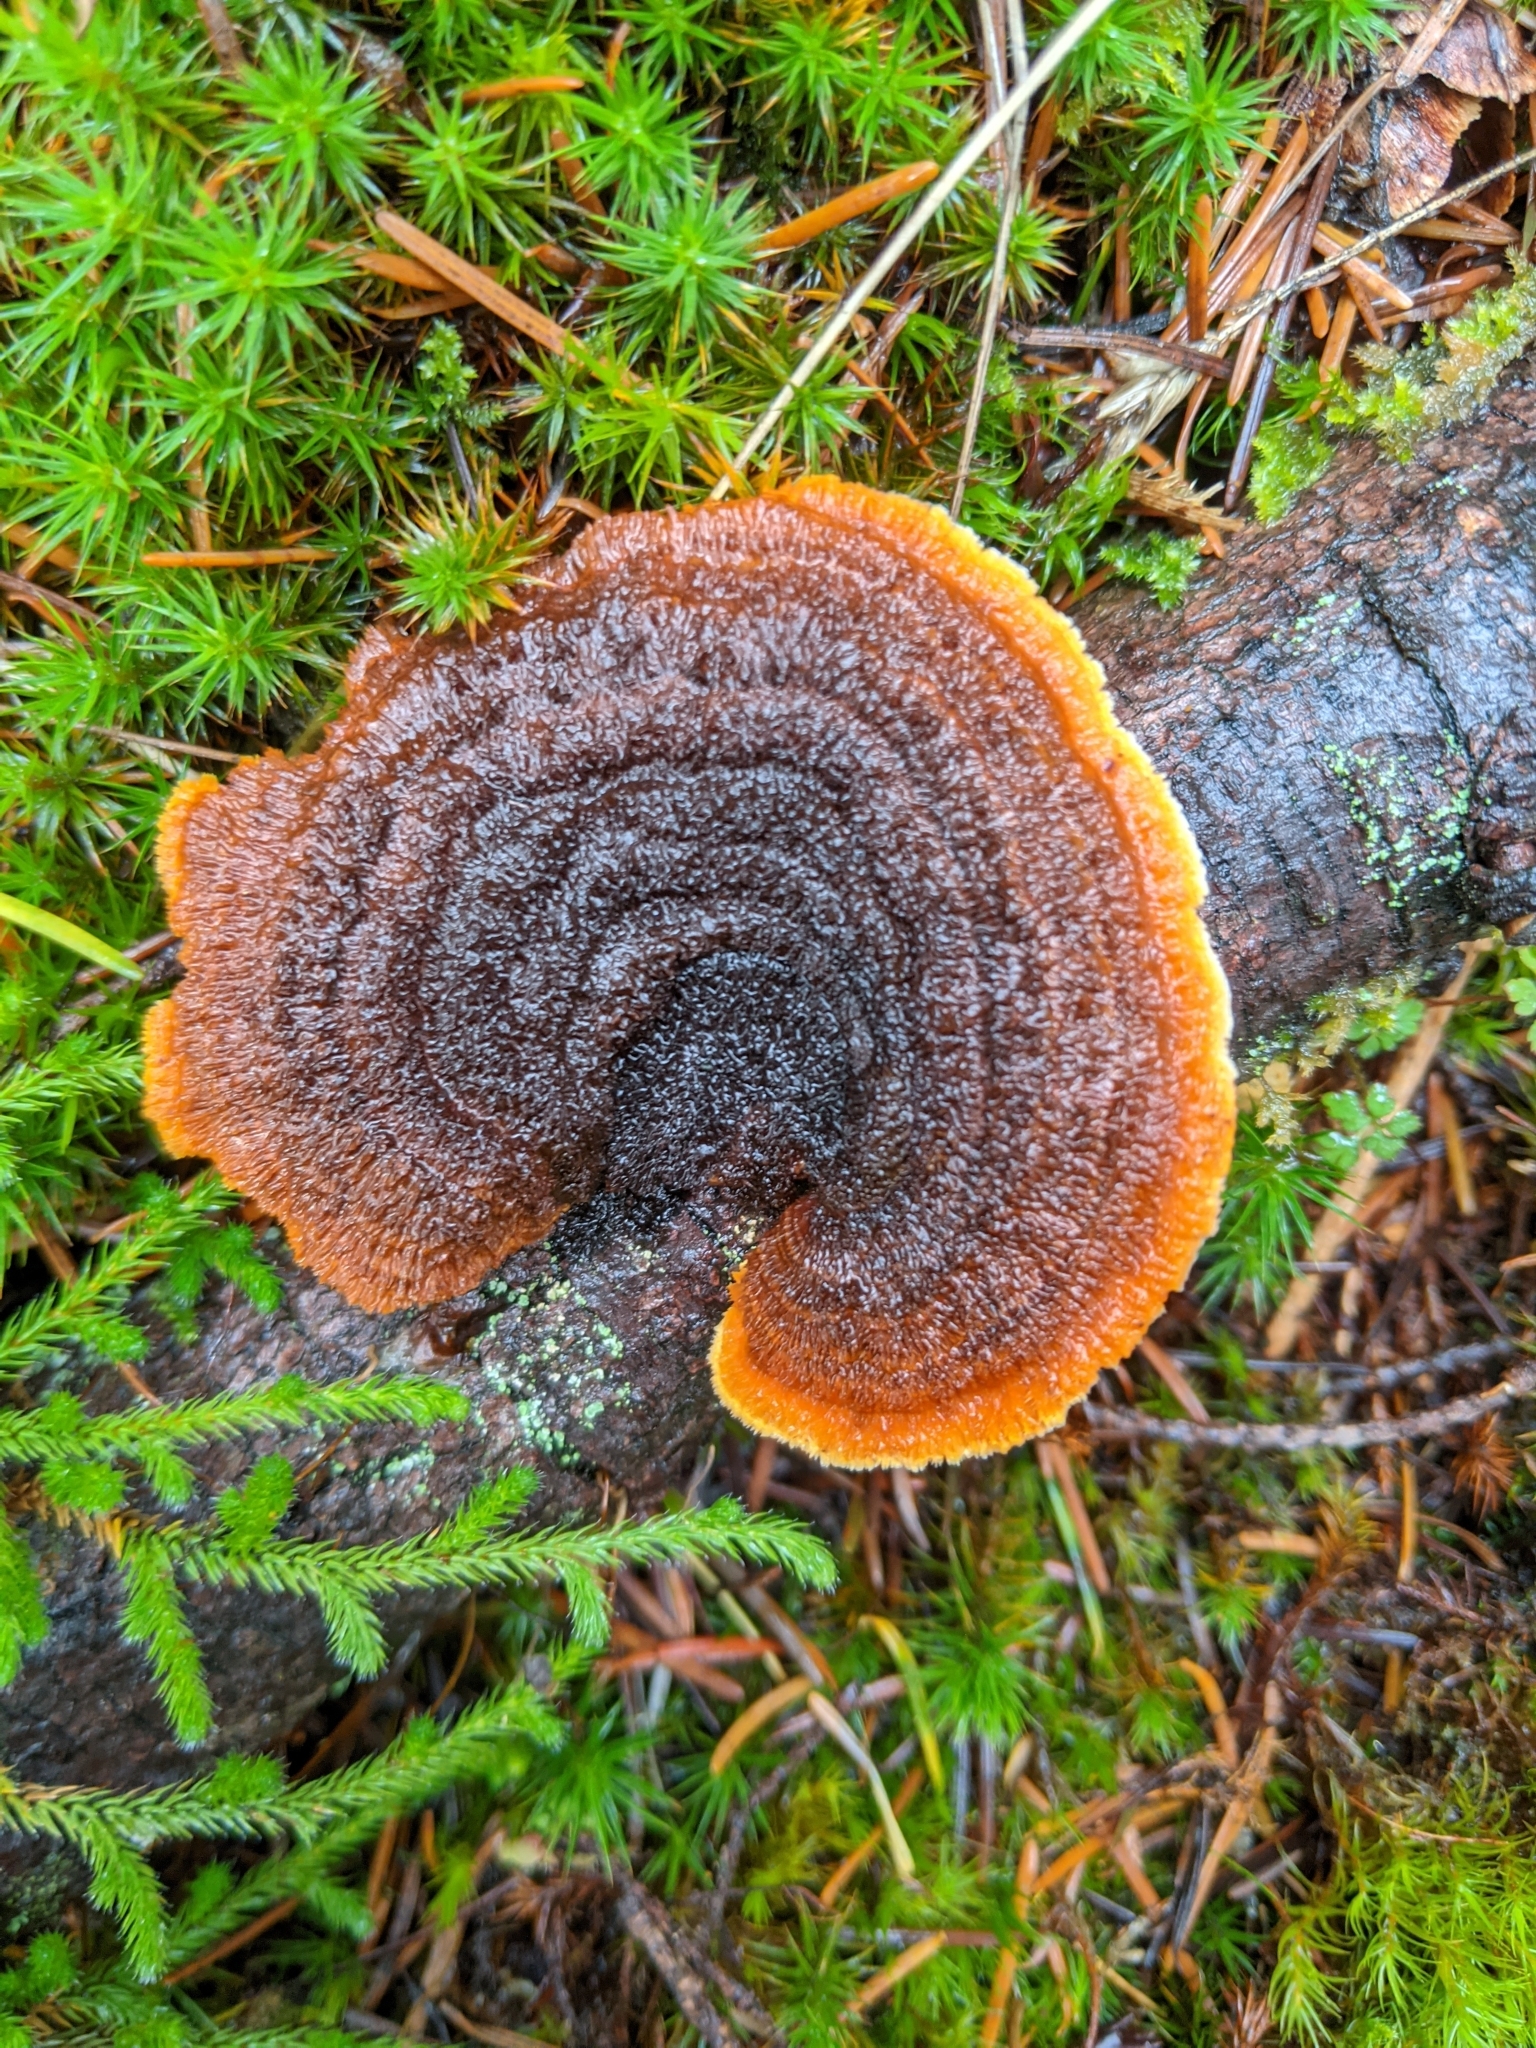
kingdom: Fungi
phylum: Basidiomycota
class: Agaricomycetes
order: Gloeophyllales
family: Gloeophyllaceae
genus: Gloeophyllum
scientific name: Gloeophyllum sepiarium
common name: Conifer mazegill
